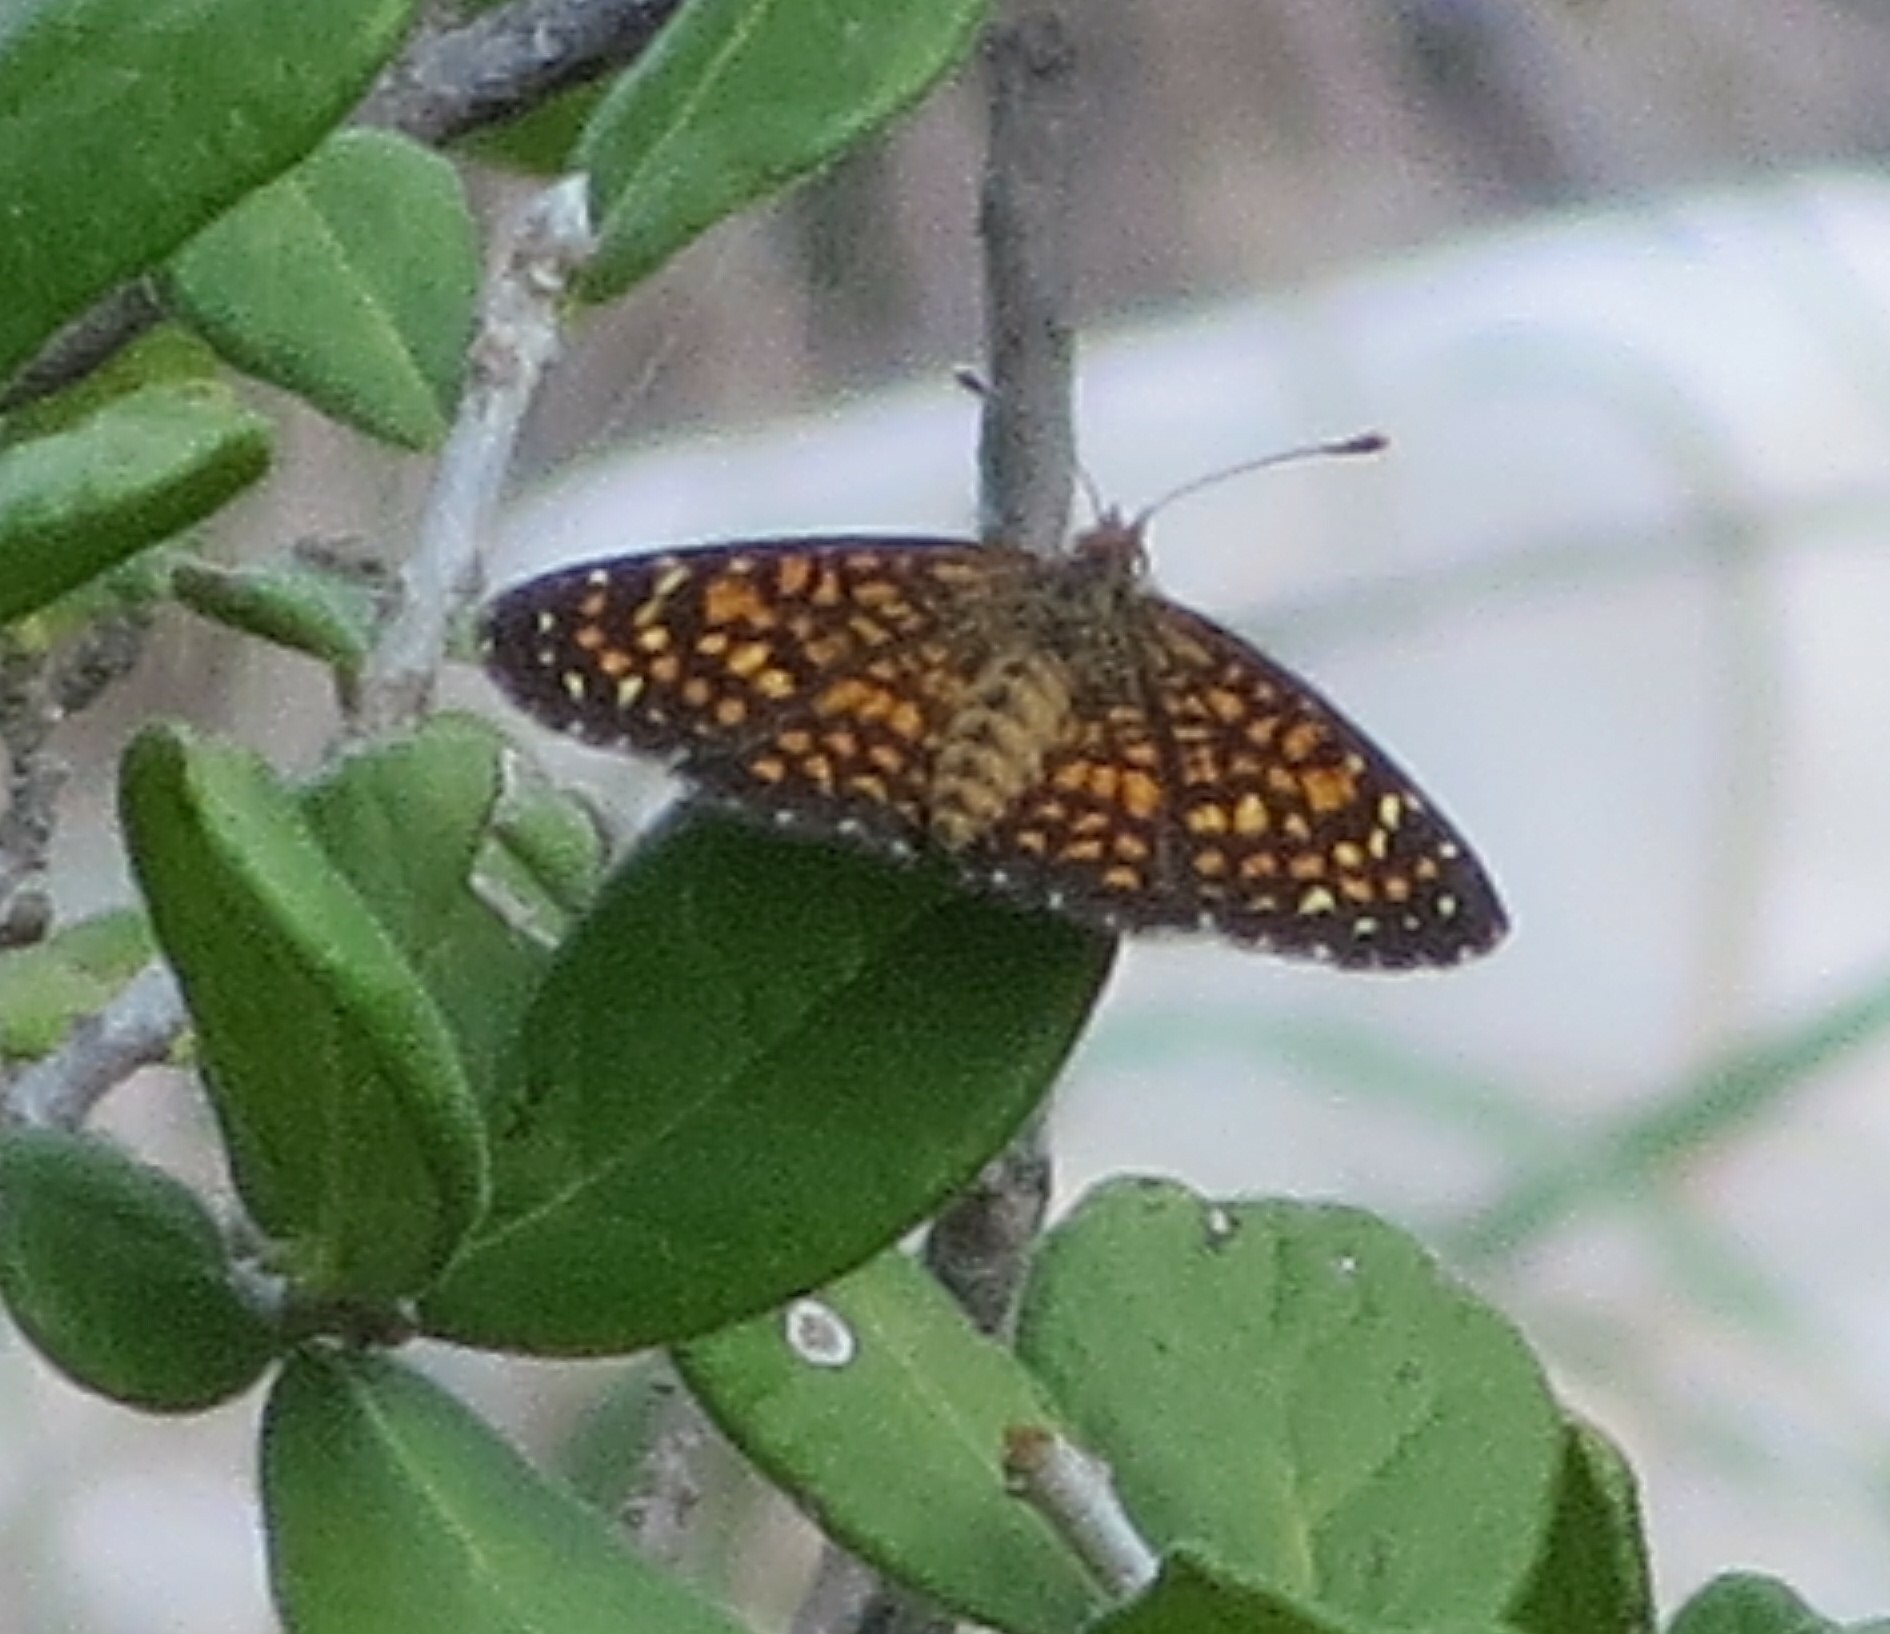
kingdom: Animalia
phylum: Arthropoda
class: Insecta
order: Lepidoptera
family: Nymphalidae
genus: Texola
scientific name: Texola elada
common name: Elada checkerspot
